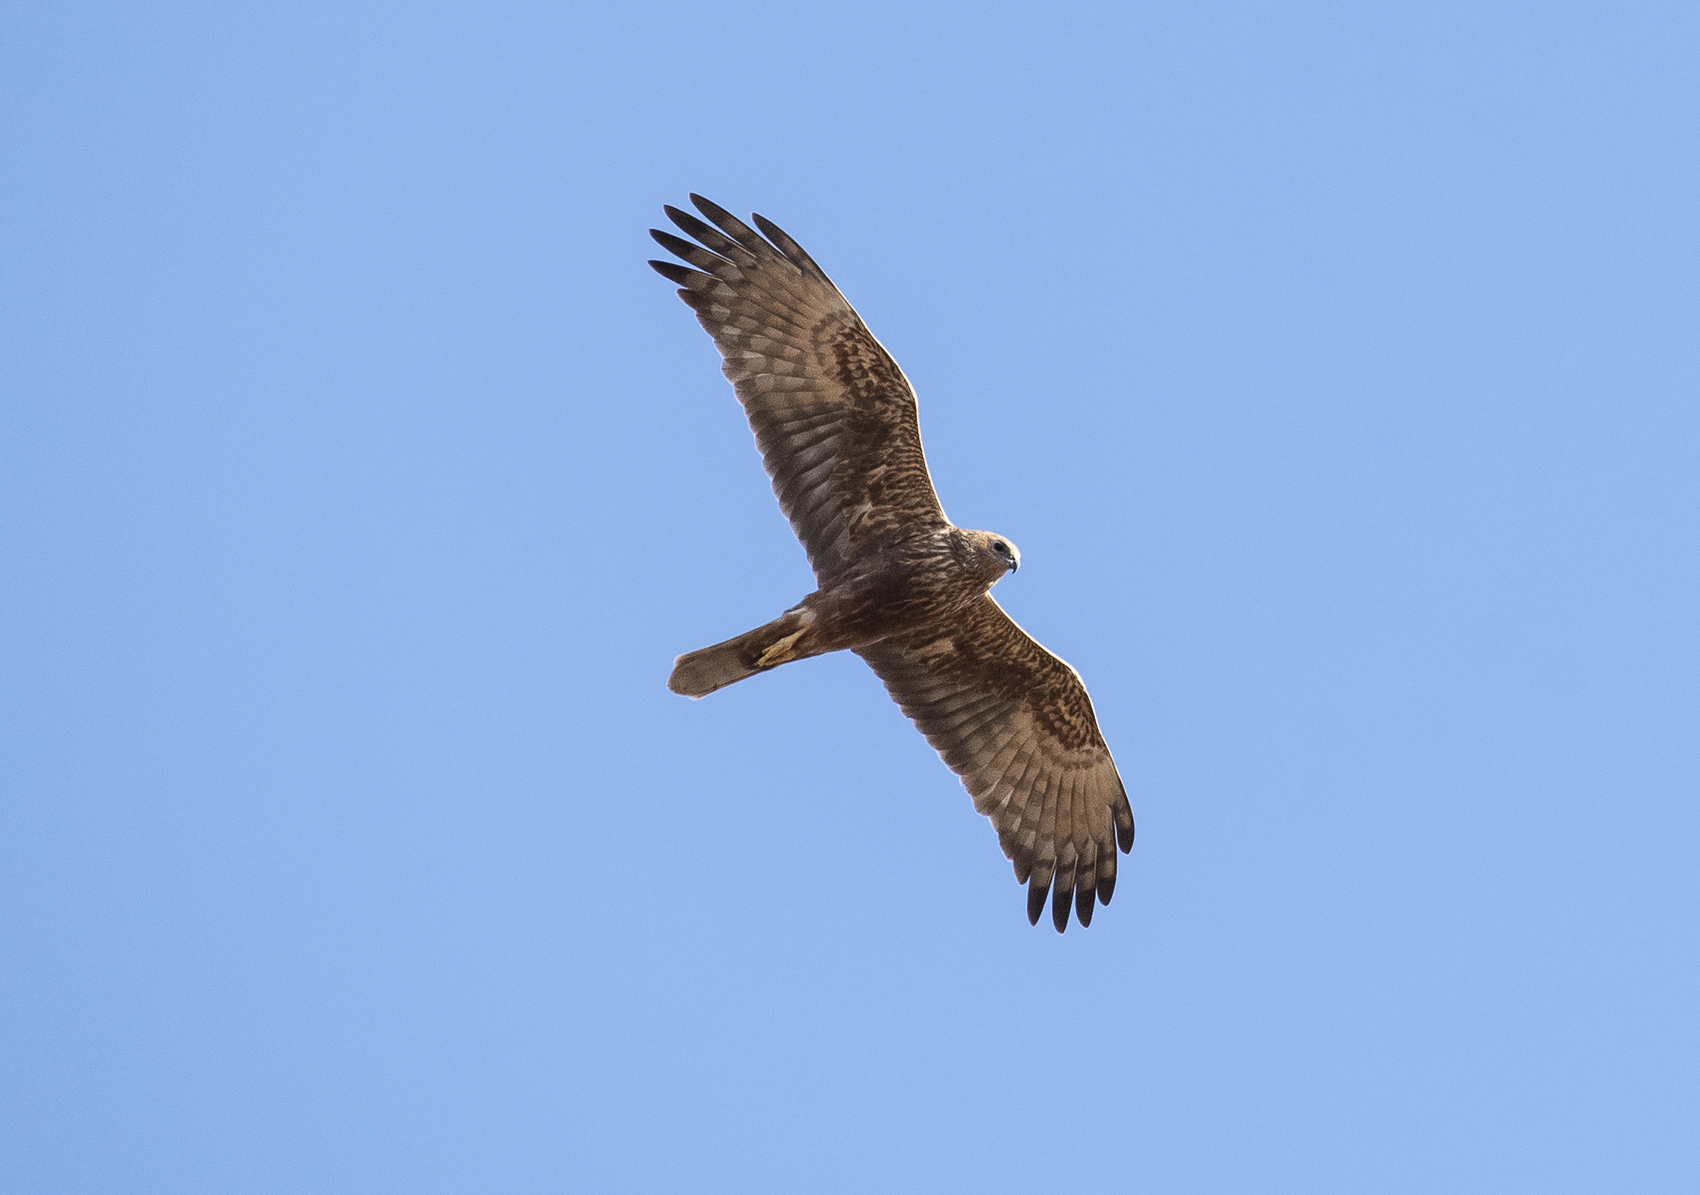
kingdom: Animalia
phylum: Chordata
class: Aves
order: Accipitriformes
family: Accipitridae
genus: Circus
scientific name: Circus spilonotus
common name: Eastern marsh-harrier
